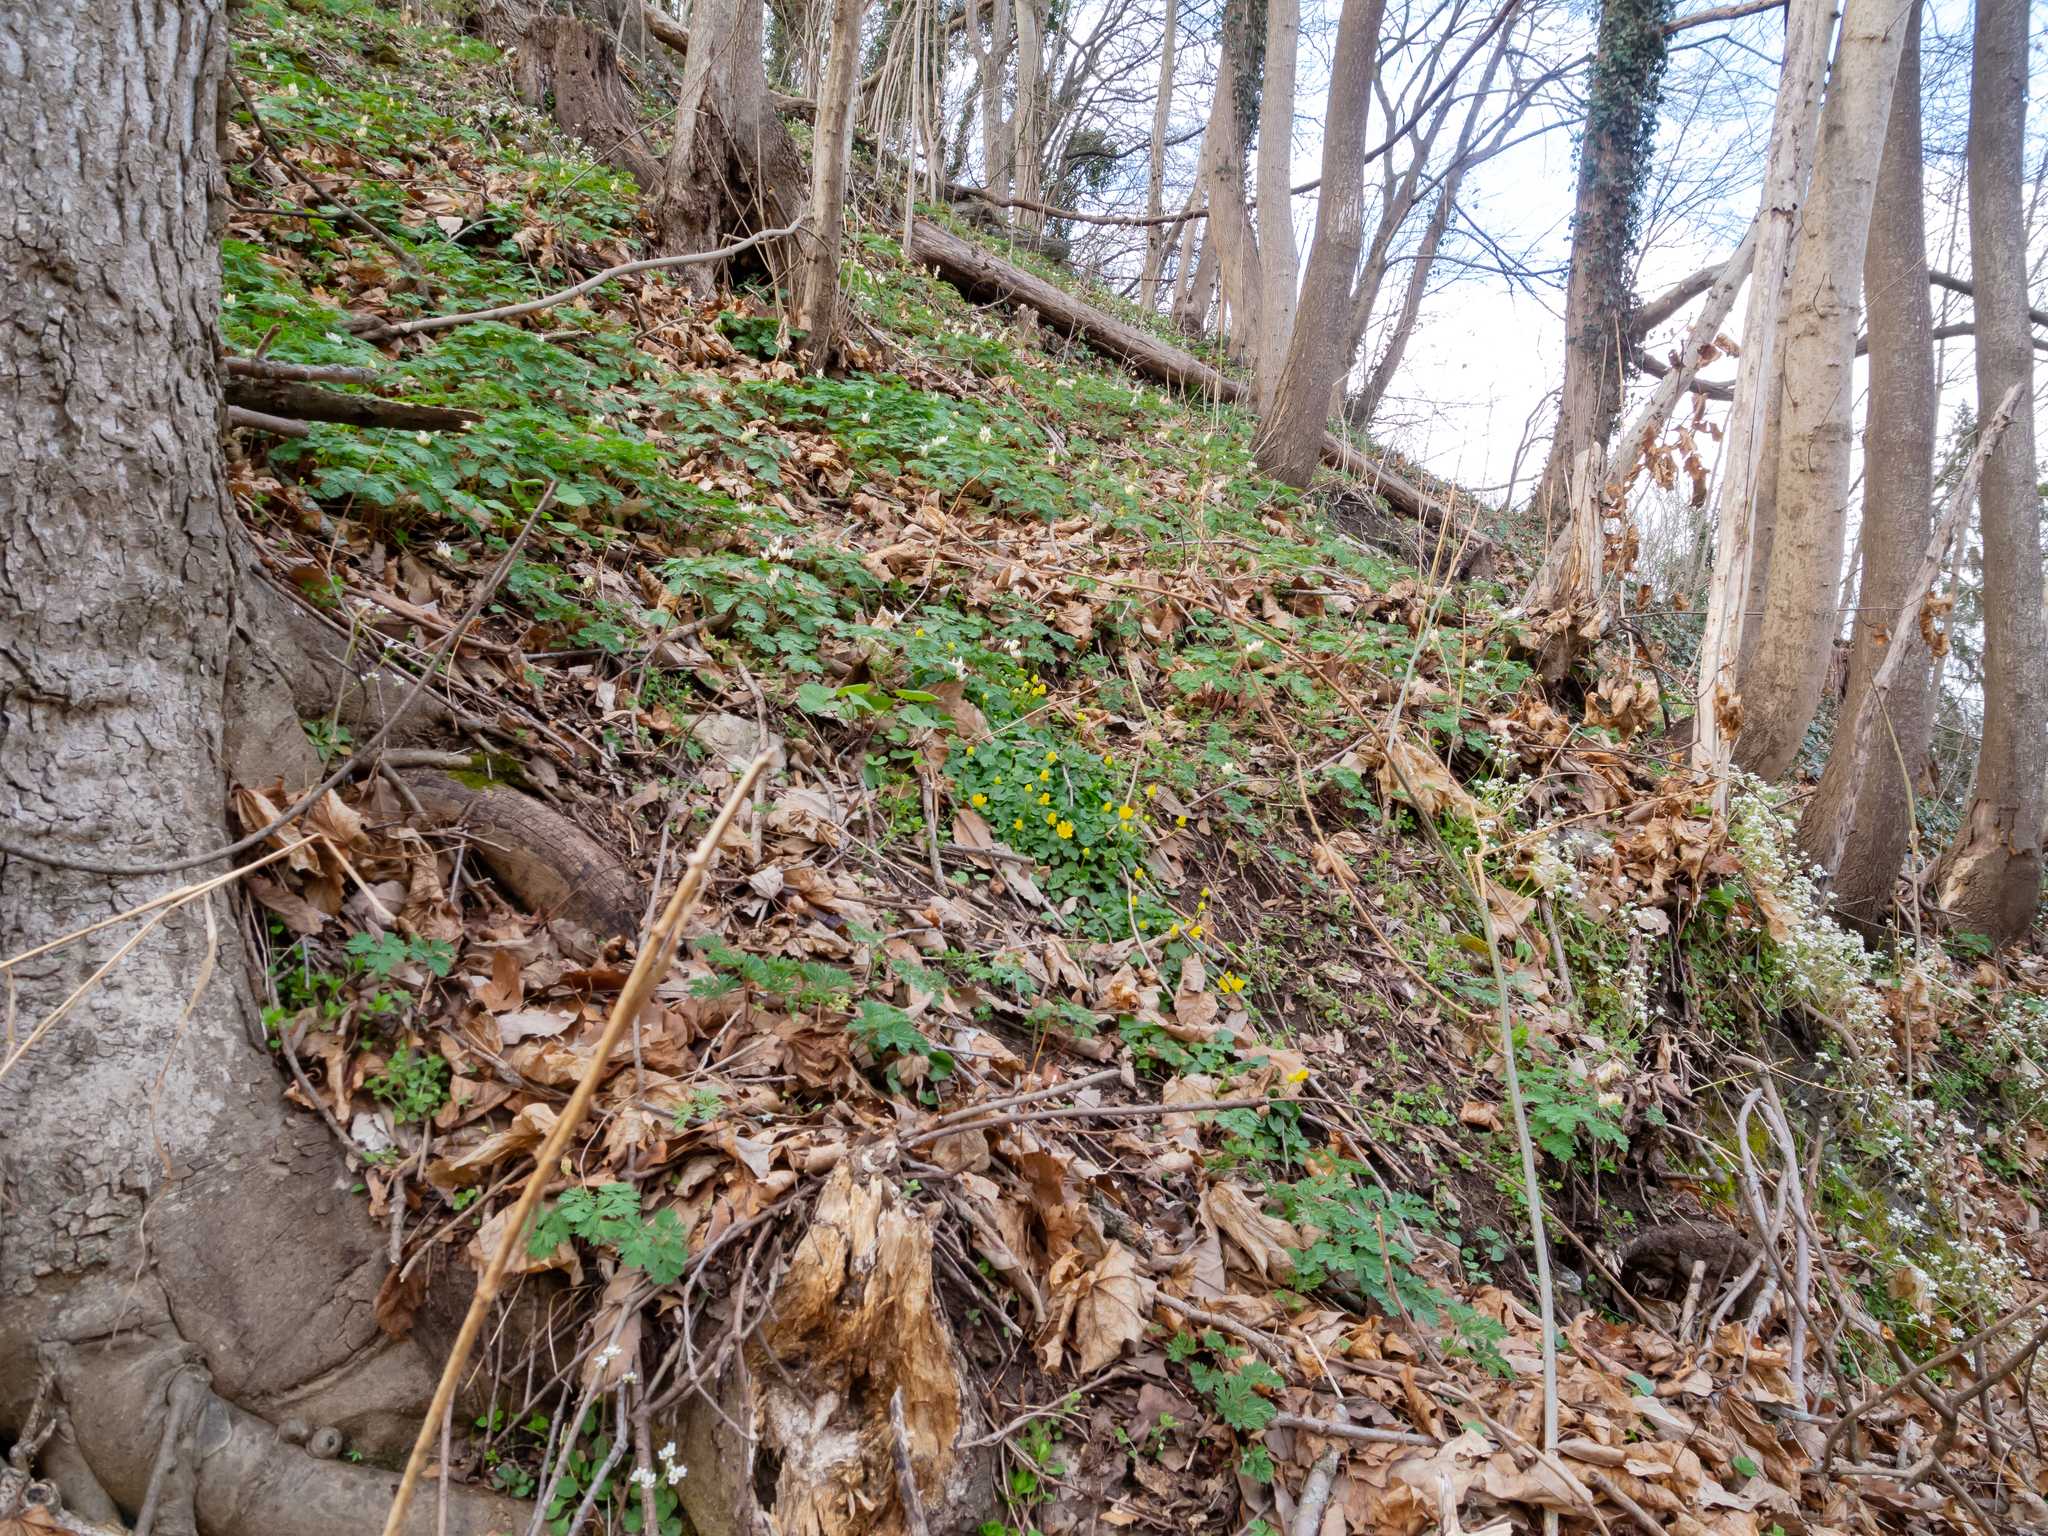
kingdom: Plantae
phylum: Tracheophyta
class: Magnoliopsida
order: Ranunculales
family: Ranunculaceae
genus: Ficaria
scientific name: Ficaria verna
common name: Lesser celandine
